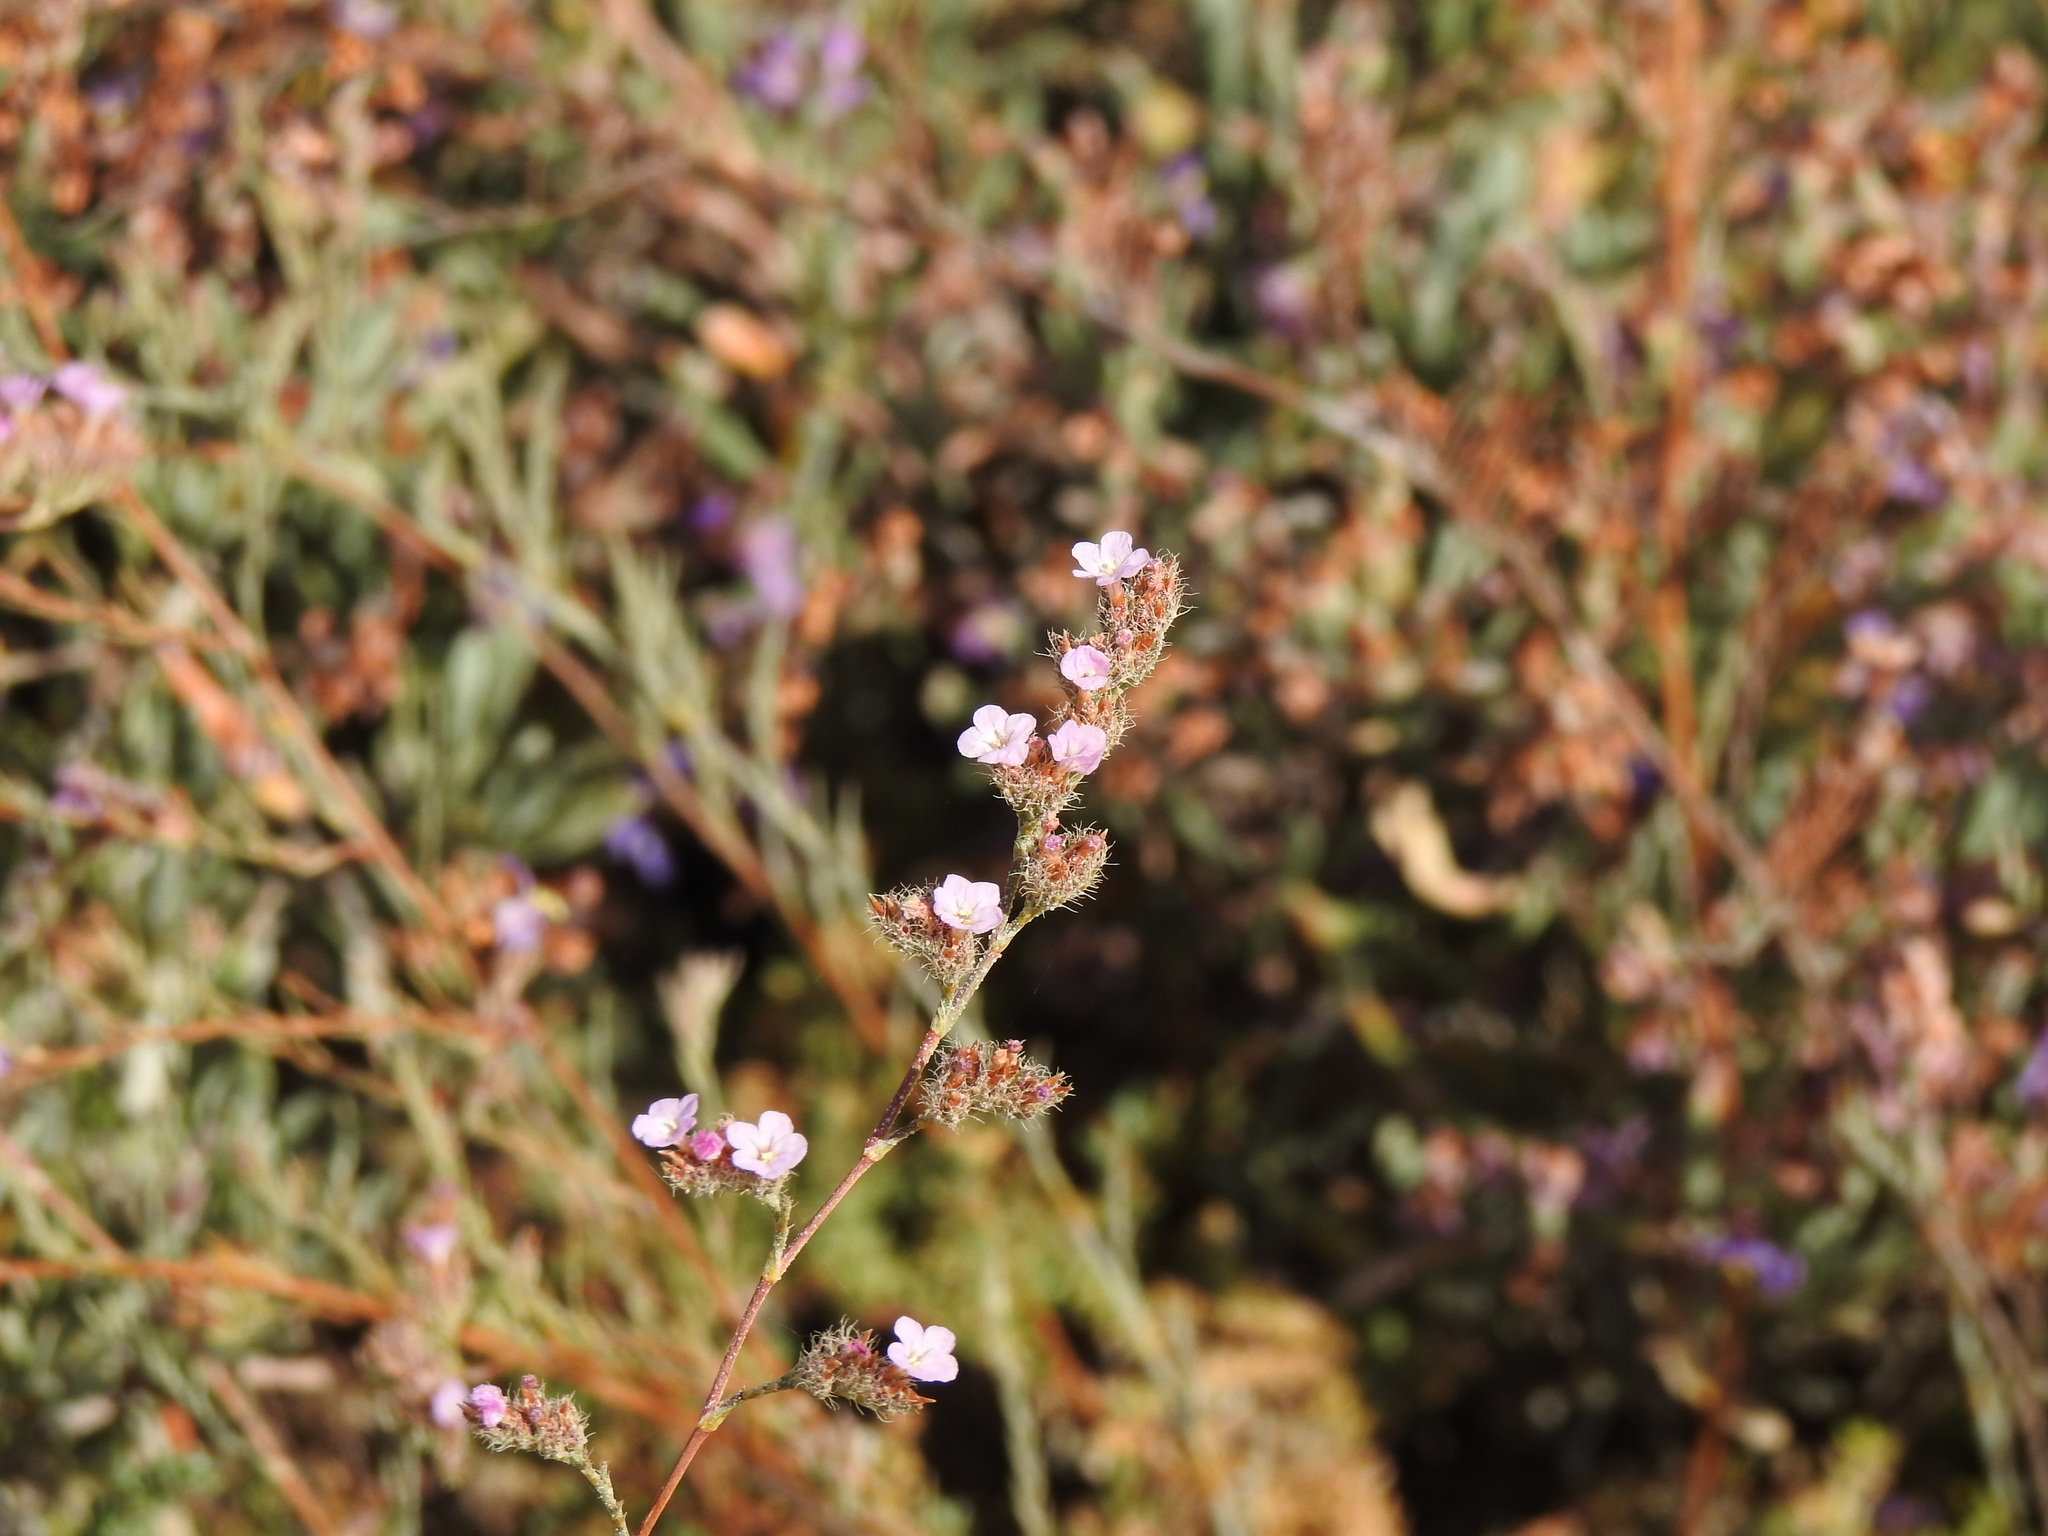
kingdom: Plantae
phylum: Tracheophyta
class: Magnoliopsida
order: Caryophyllales
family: Plumbaginaceae
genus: Myriolimon
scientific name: Myriolimon ferulaceum
